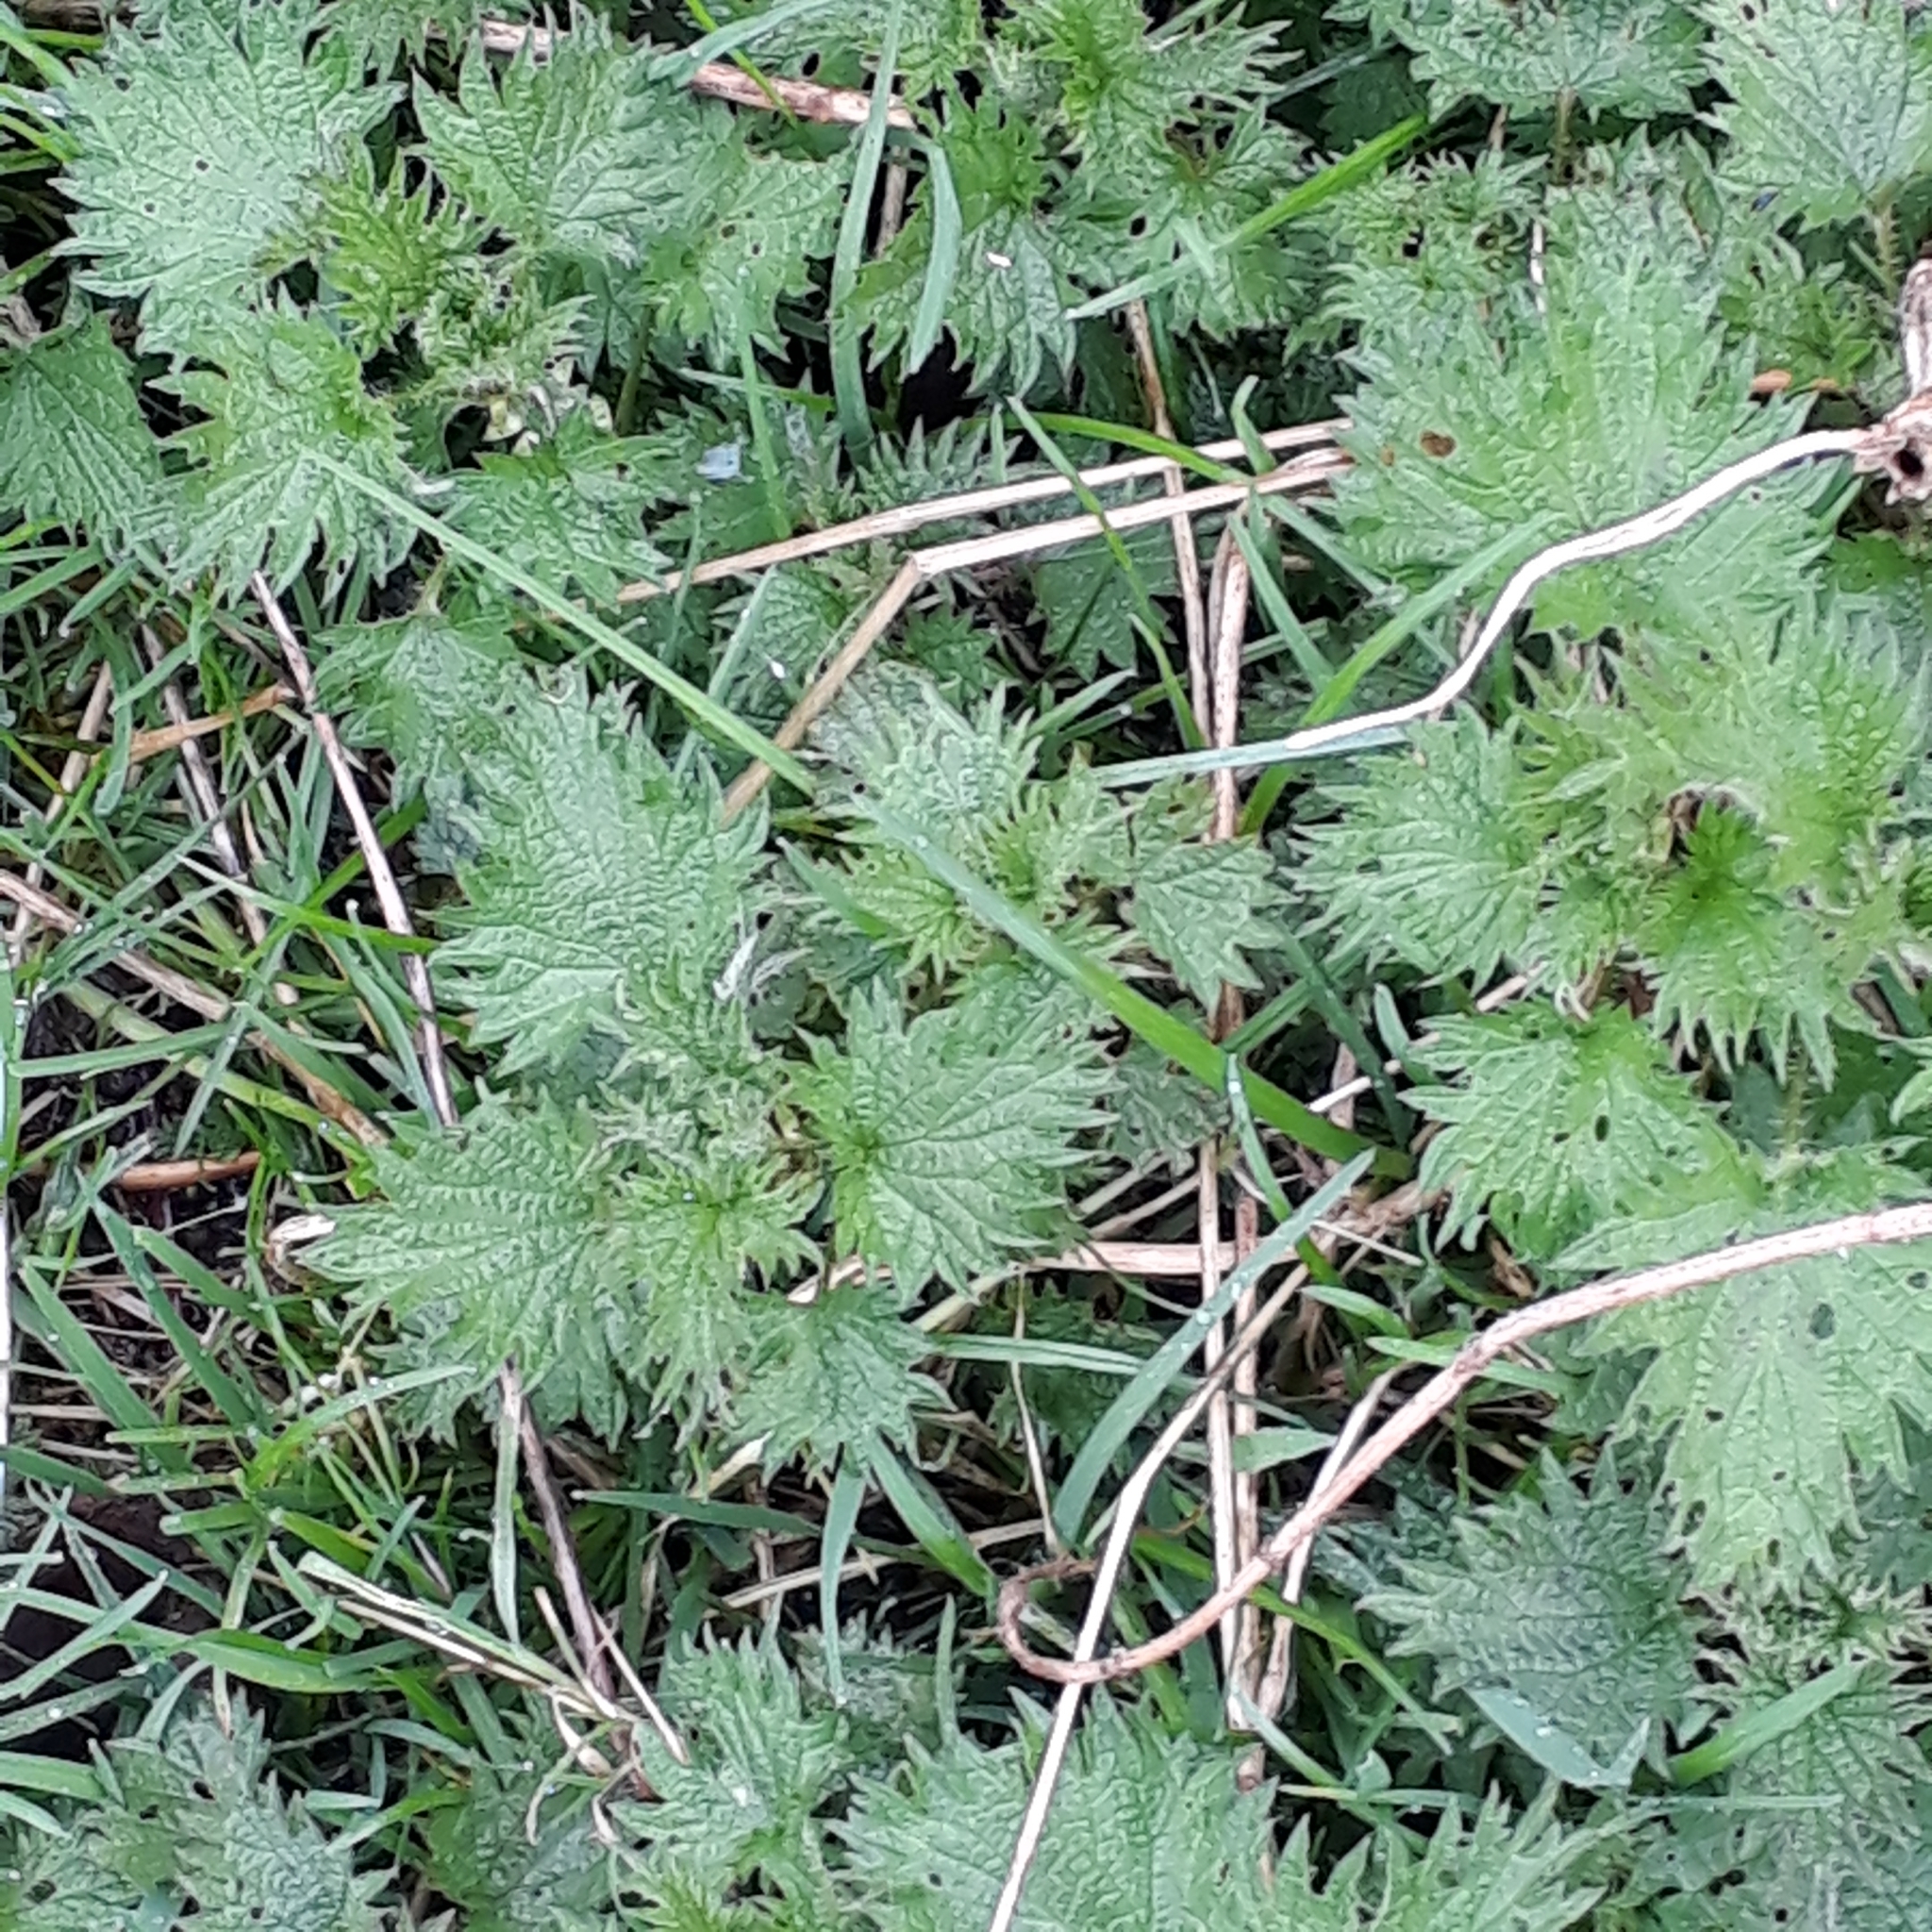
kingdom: Plantae
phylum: Tracheophyta
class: Magnoliopsida
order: Rosales
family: Urticaceae
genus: Urtica
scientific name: Urtica dioica
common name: Common nettle
